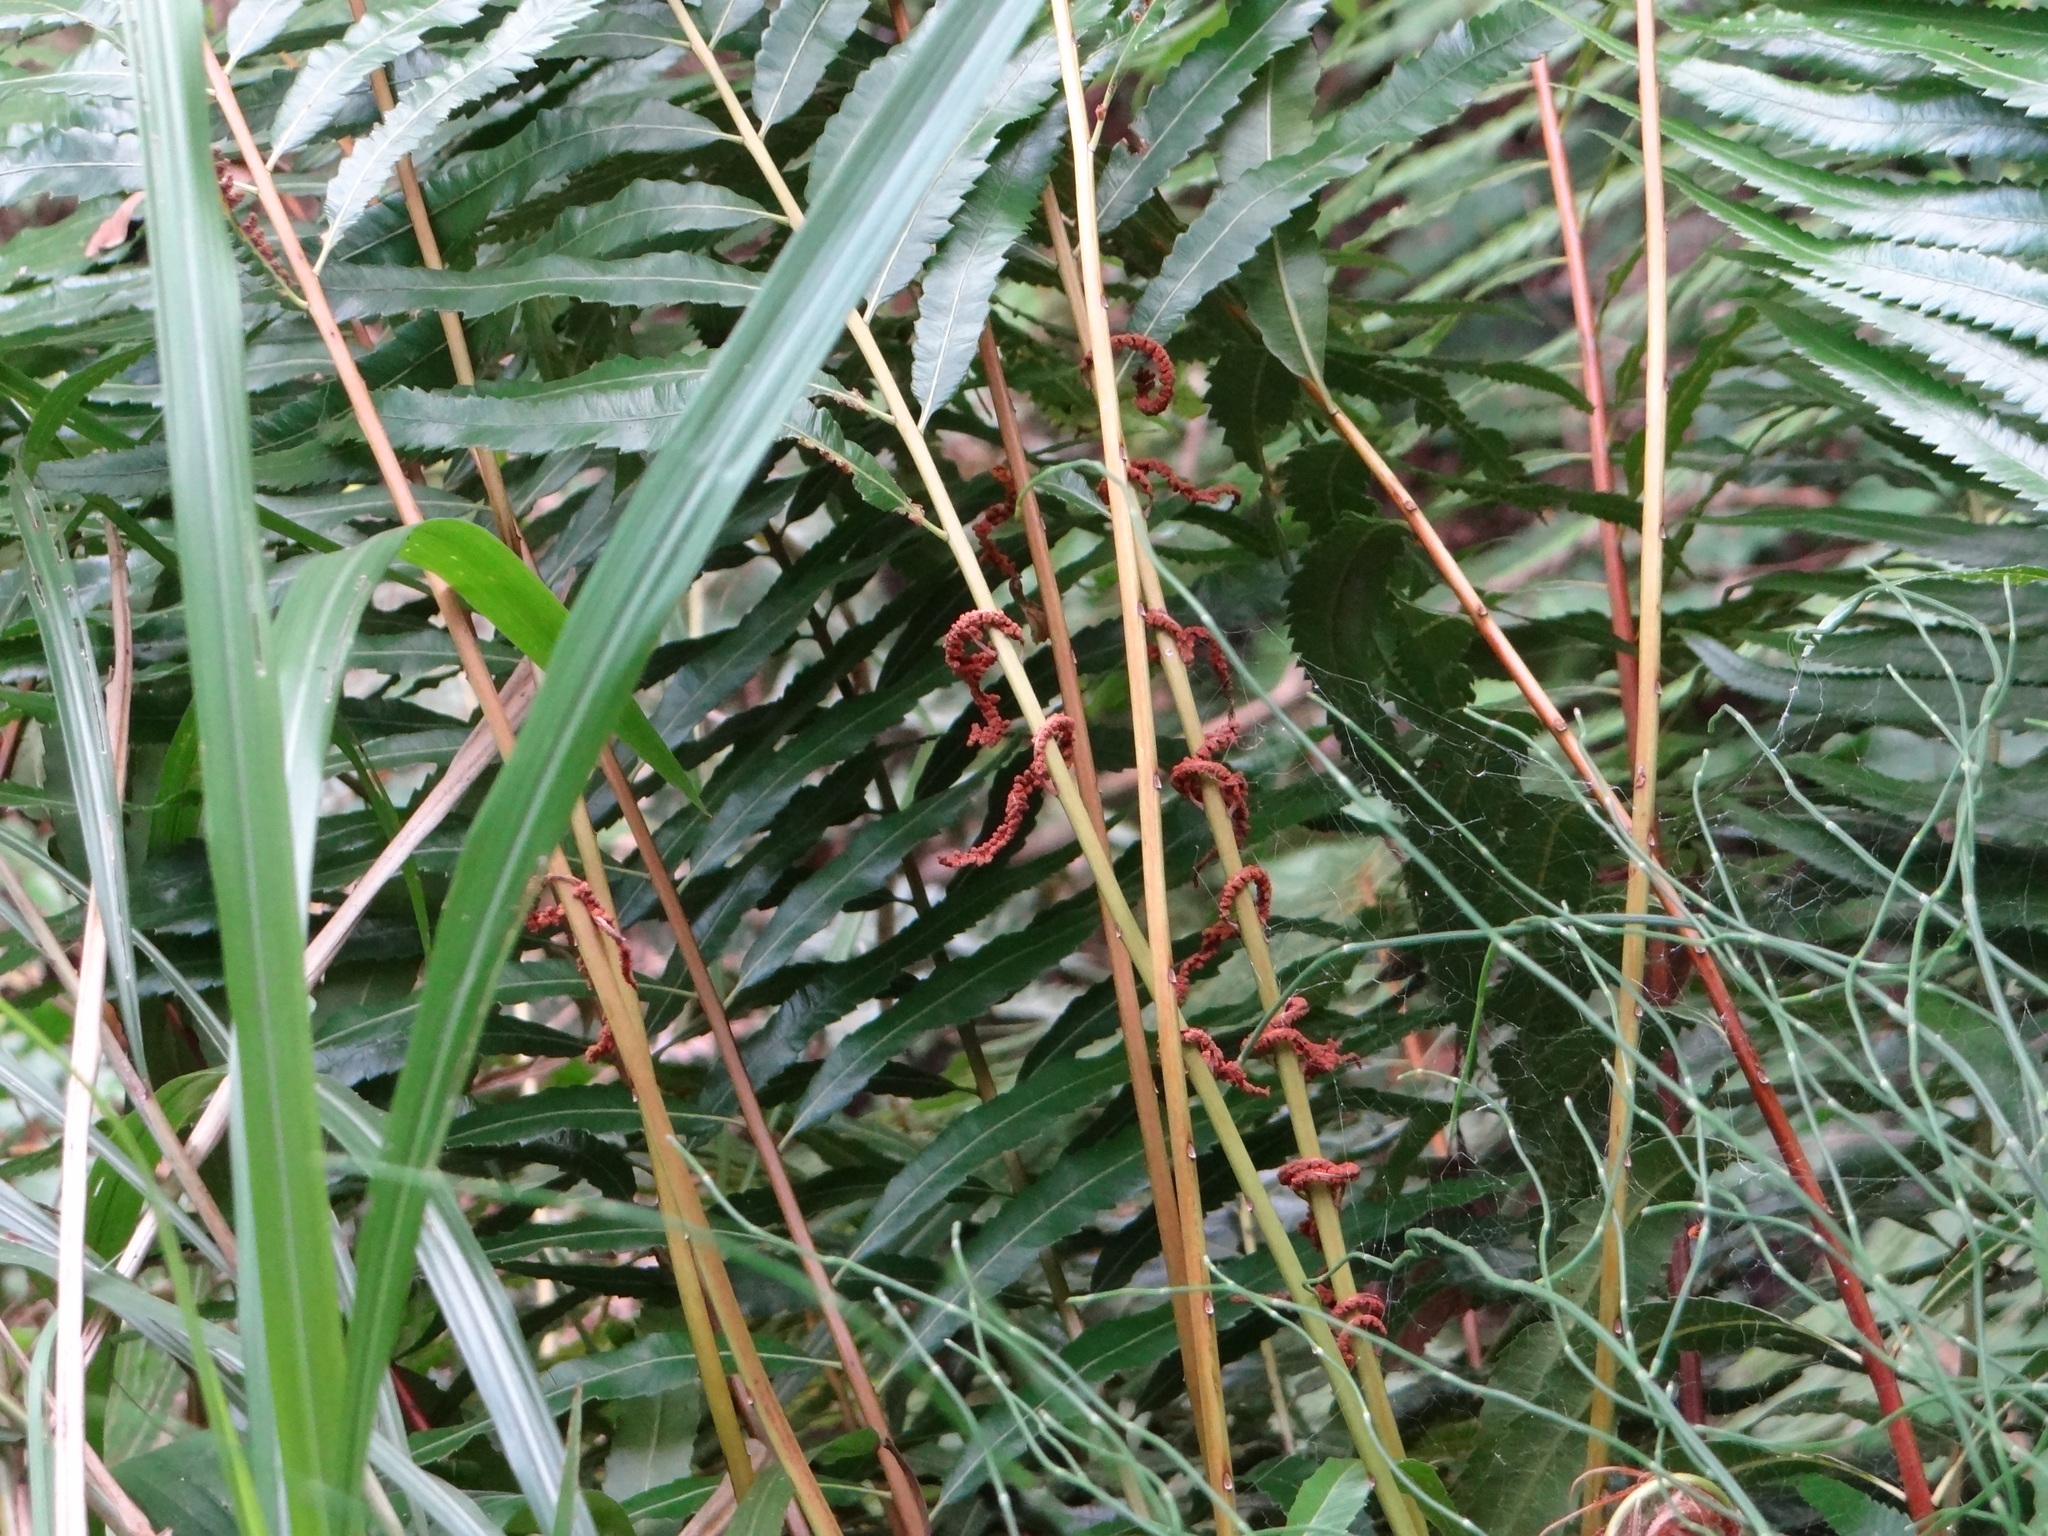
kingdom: Plantae
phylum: Tracheophyta
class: Polypodiopsida
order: Osmundales
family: Osmundaceae
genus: Plenasium
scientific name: Plenasium banksiifolium
